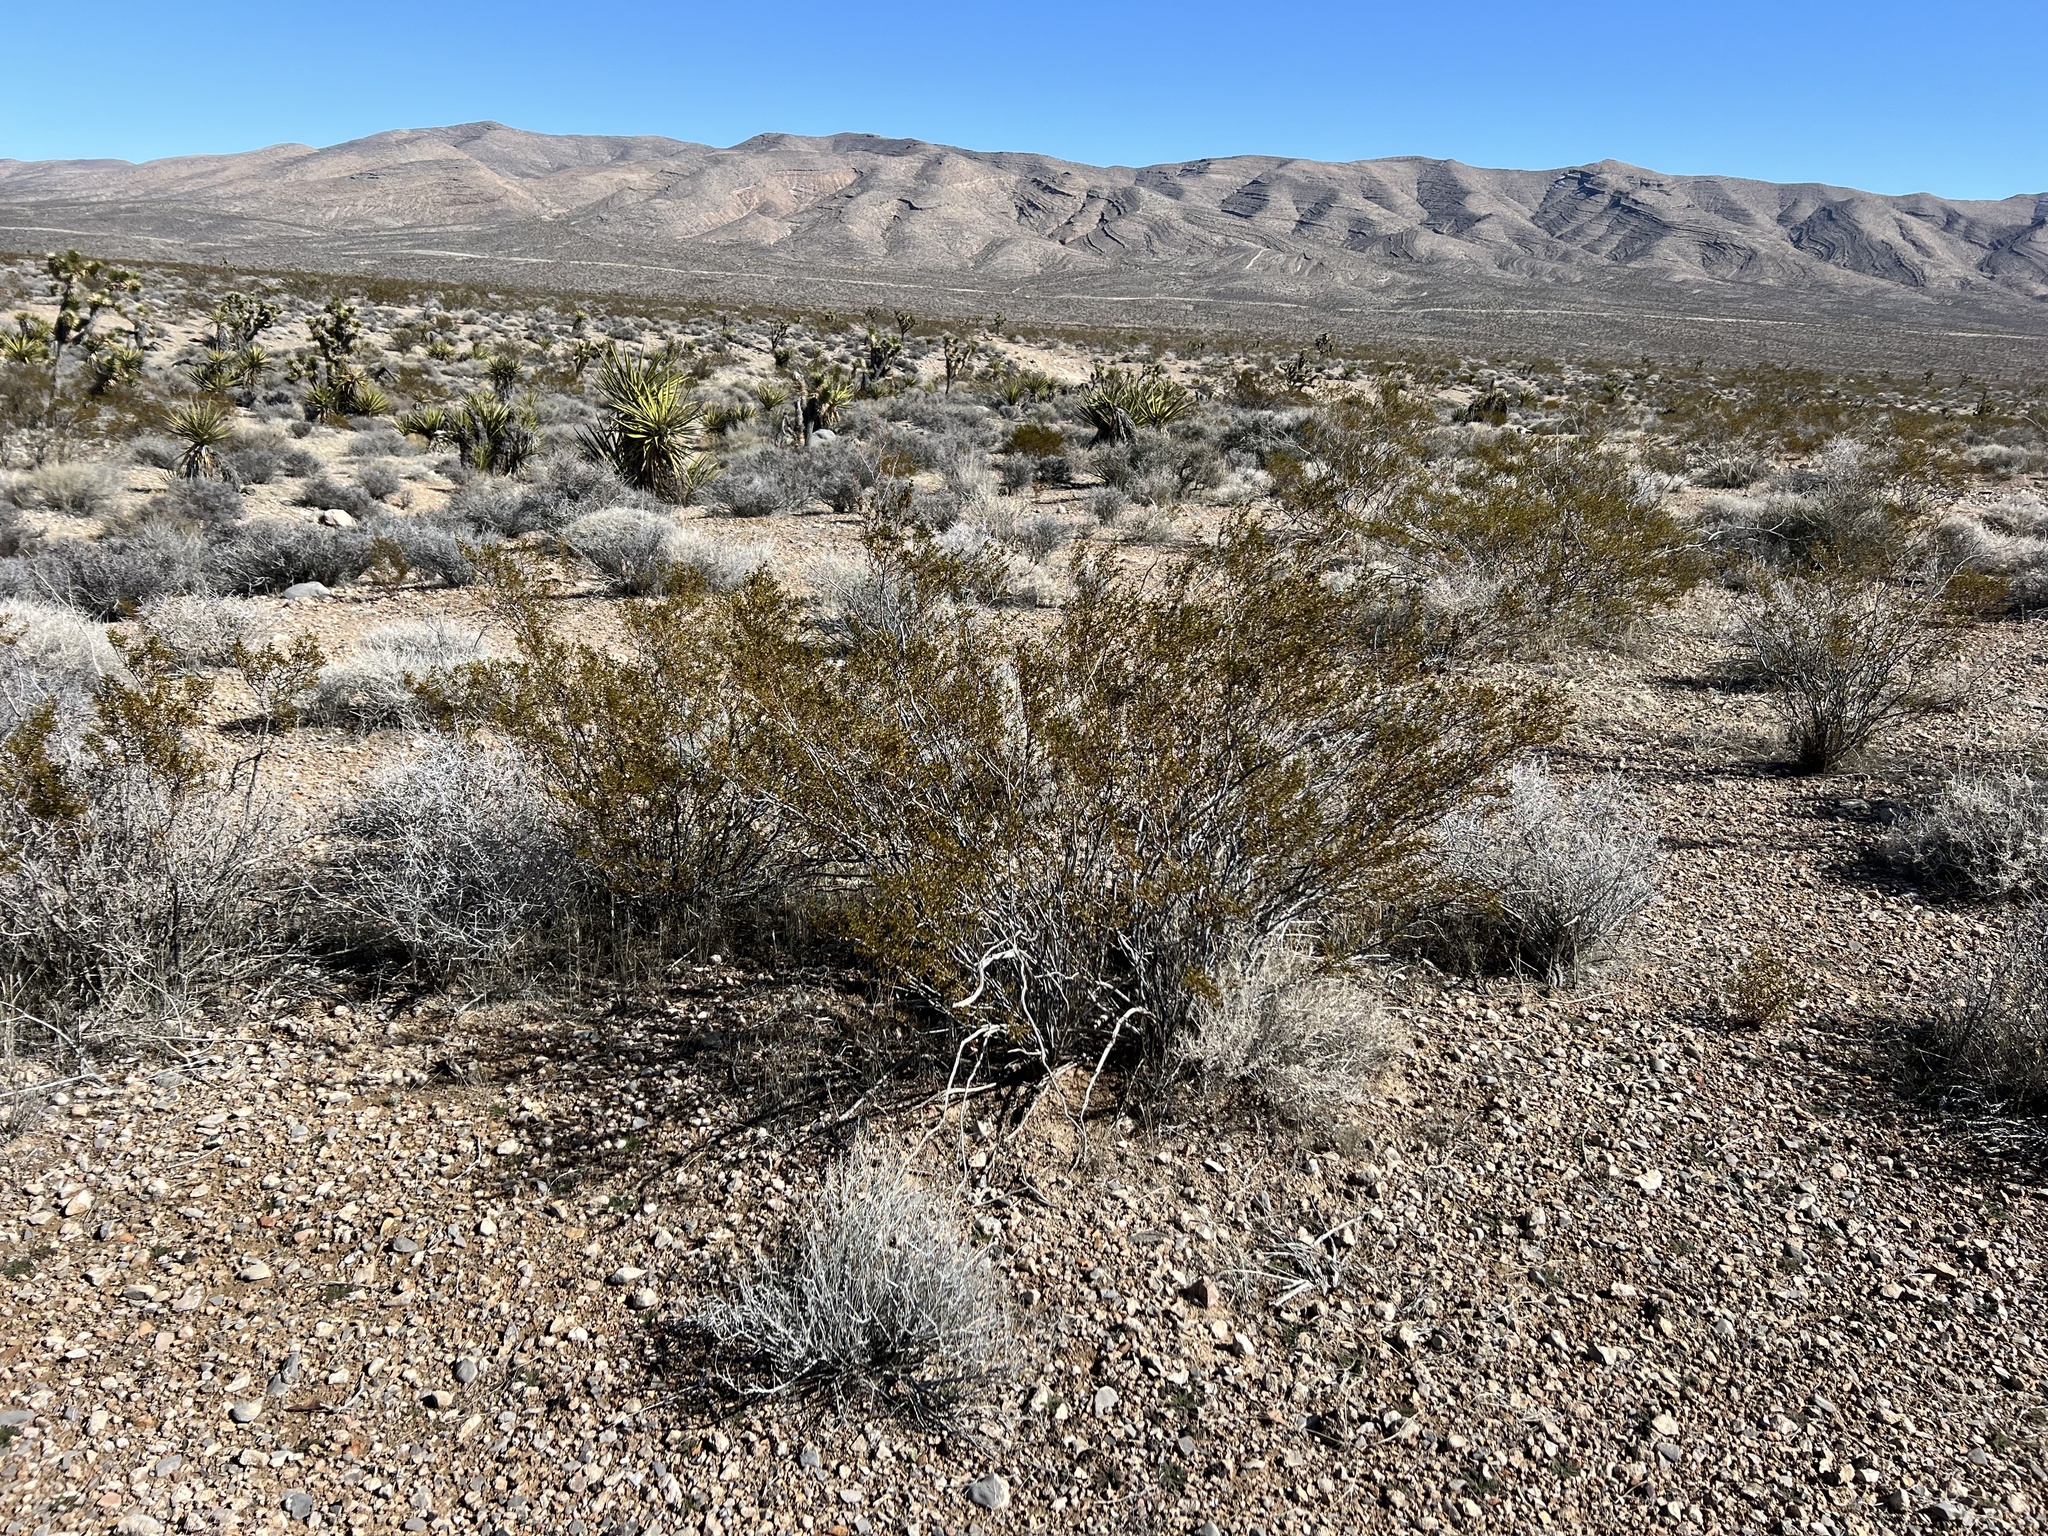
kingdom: Plantae
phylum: Tracheophyta
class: Magnoliopsida
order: Zygophyllales
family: Zygophyllaceae
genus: Larrea
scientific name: Larrea tridentata
